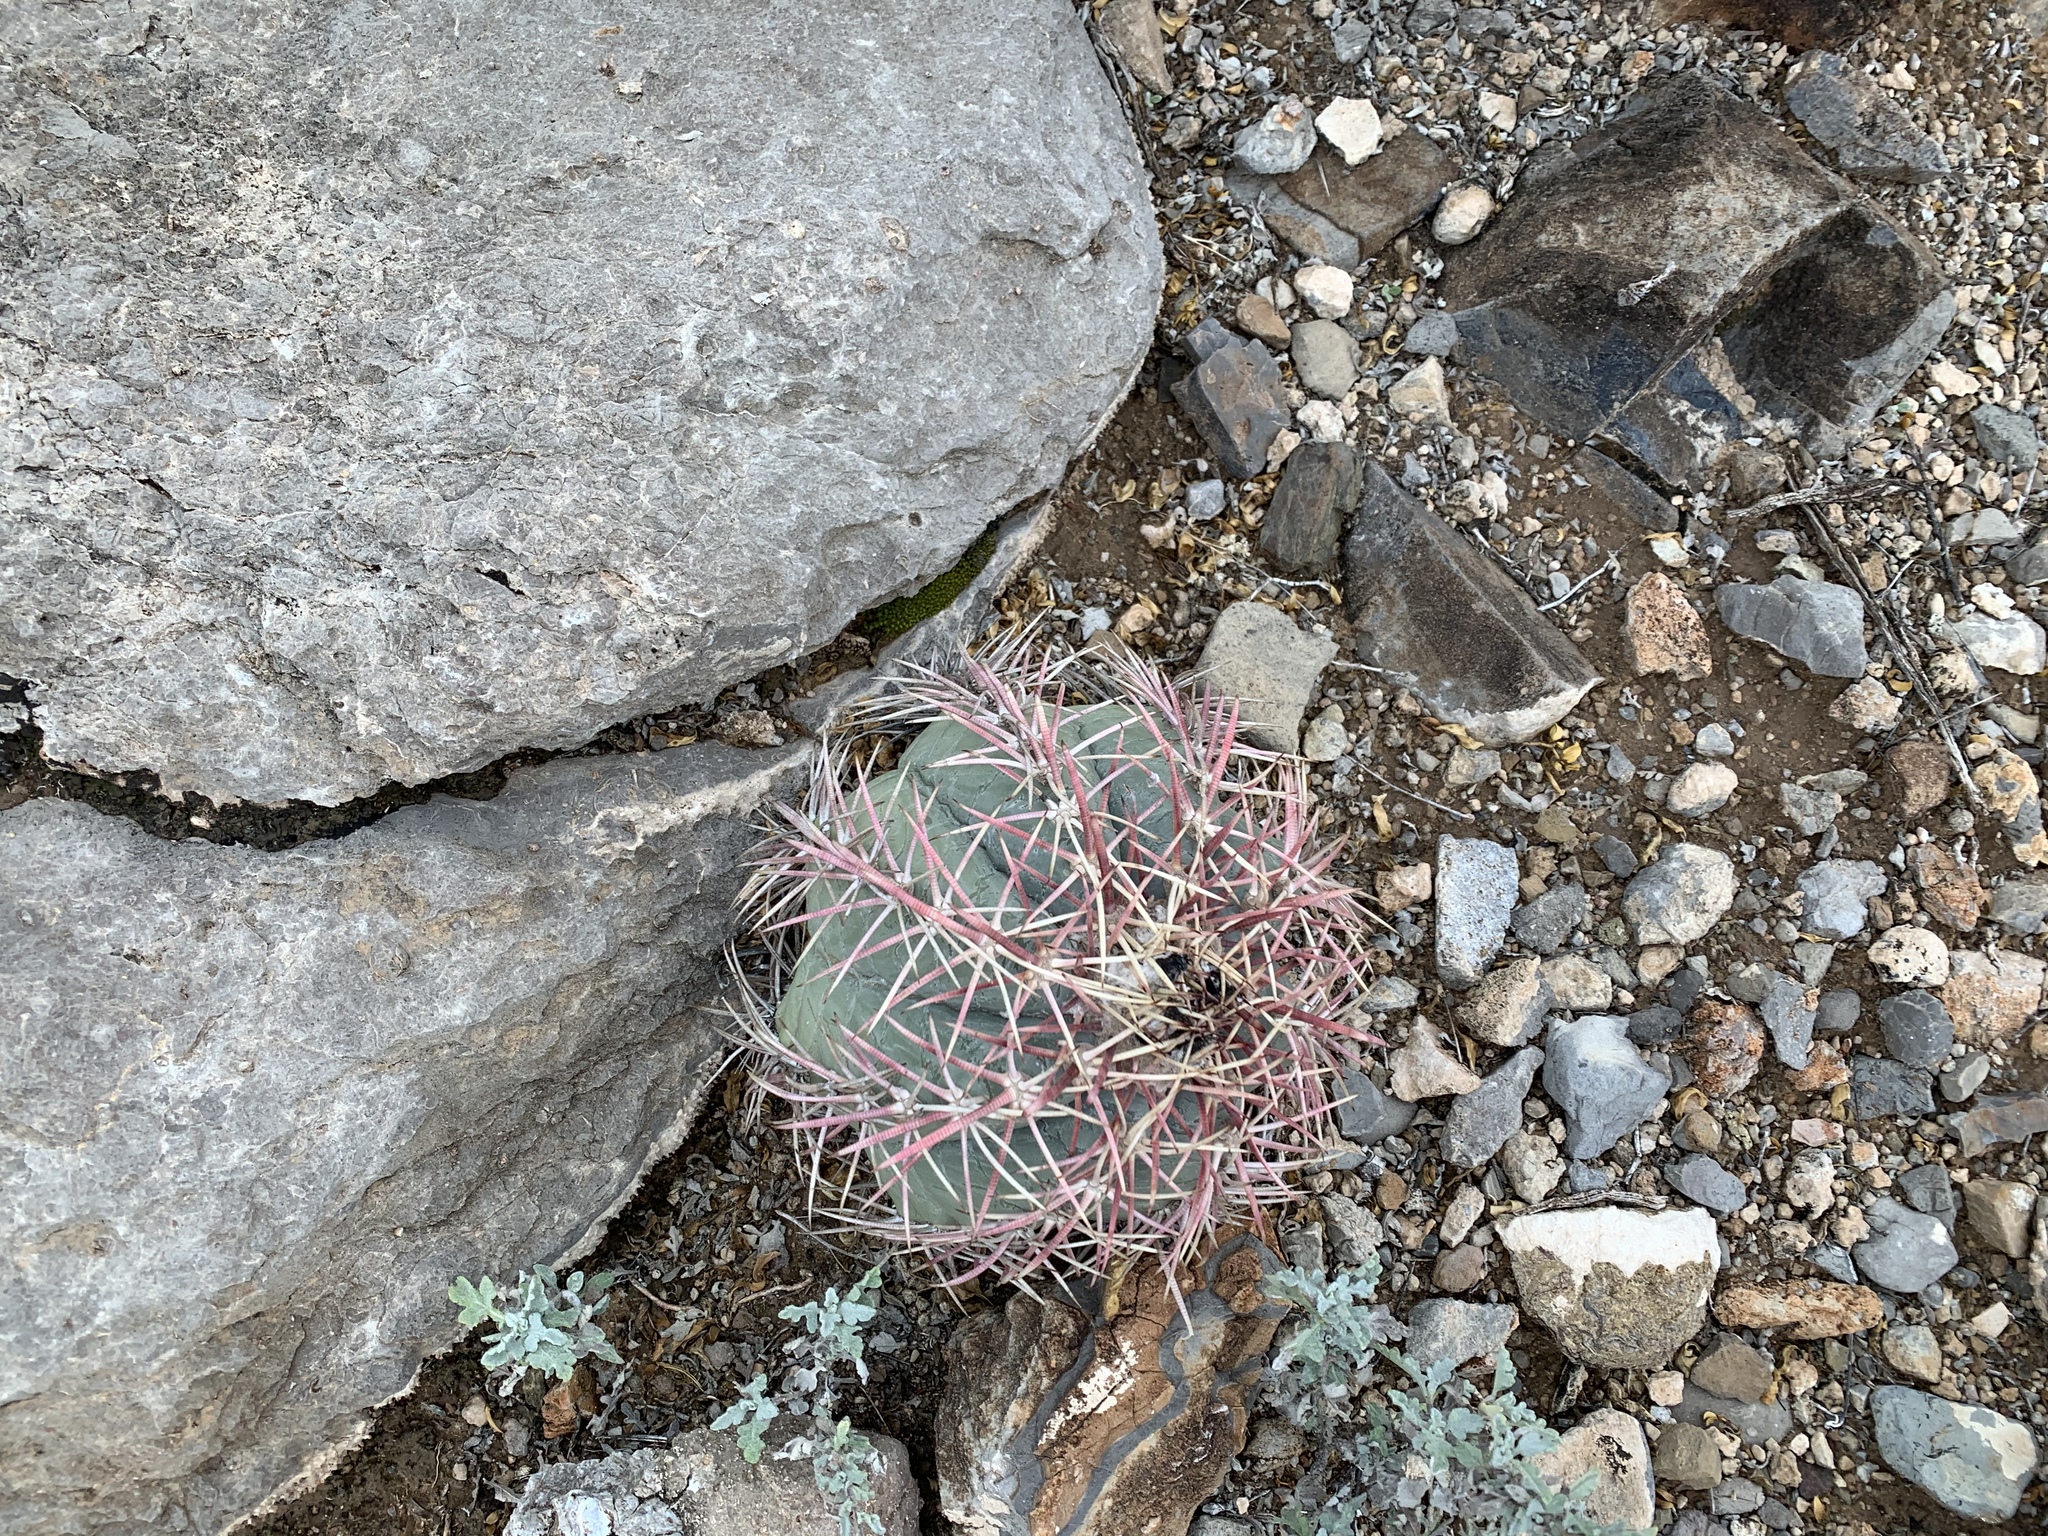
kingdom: Plantae
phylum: Tracheophyta
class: Magnoliopsida
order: Caryophyllales
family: Cactaceae
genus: Echinocactus
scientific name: Echinocactus horizonthalonius
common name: Devilshead
